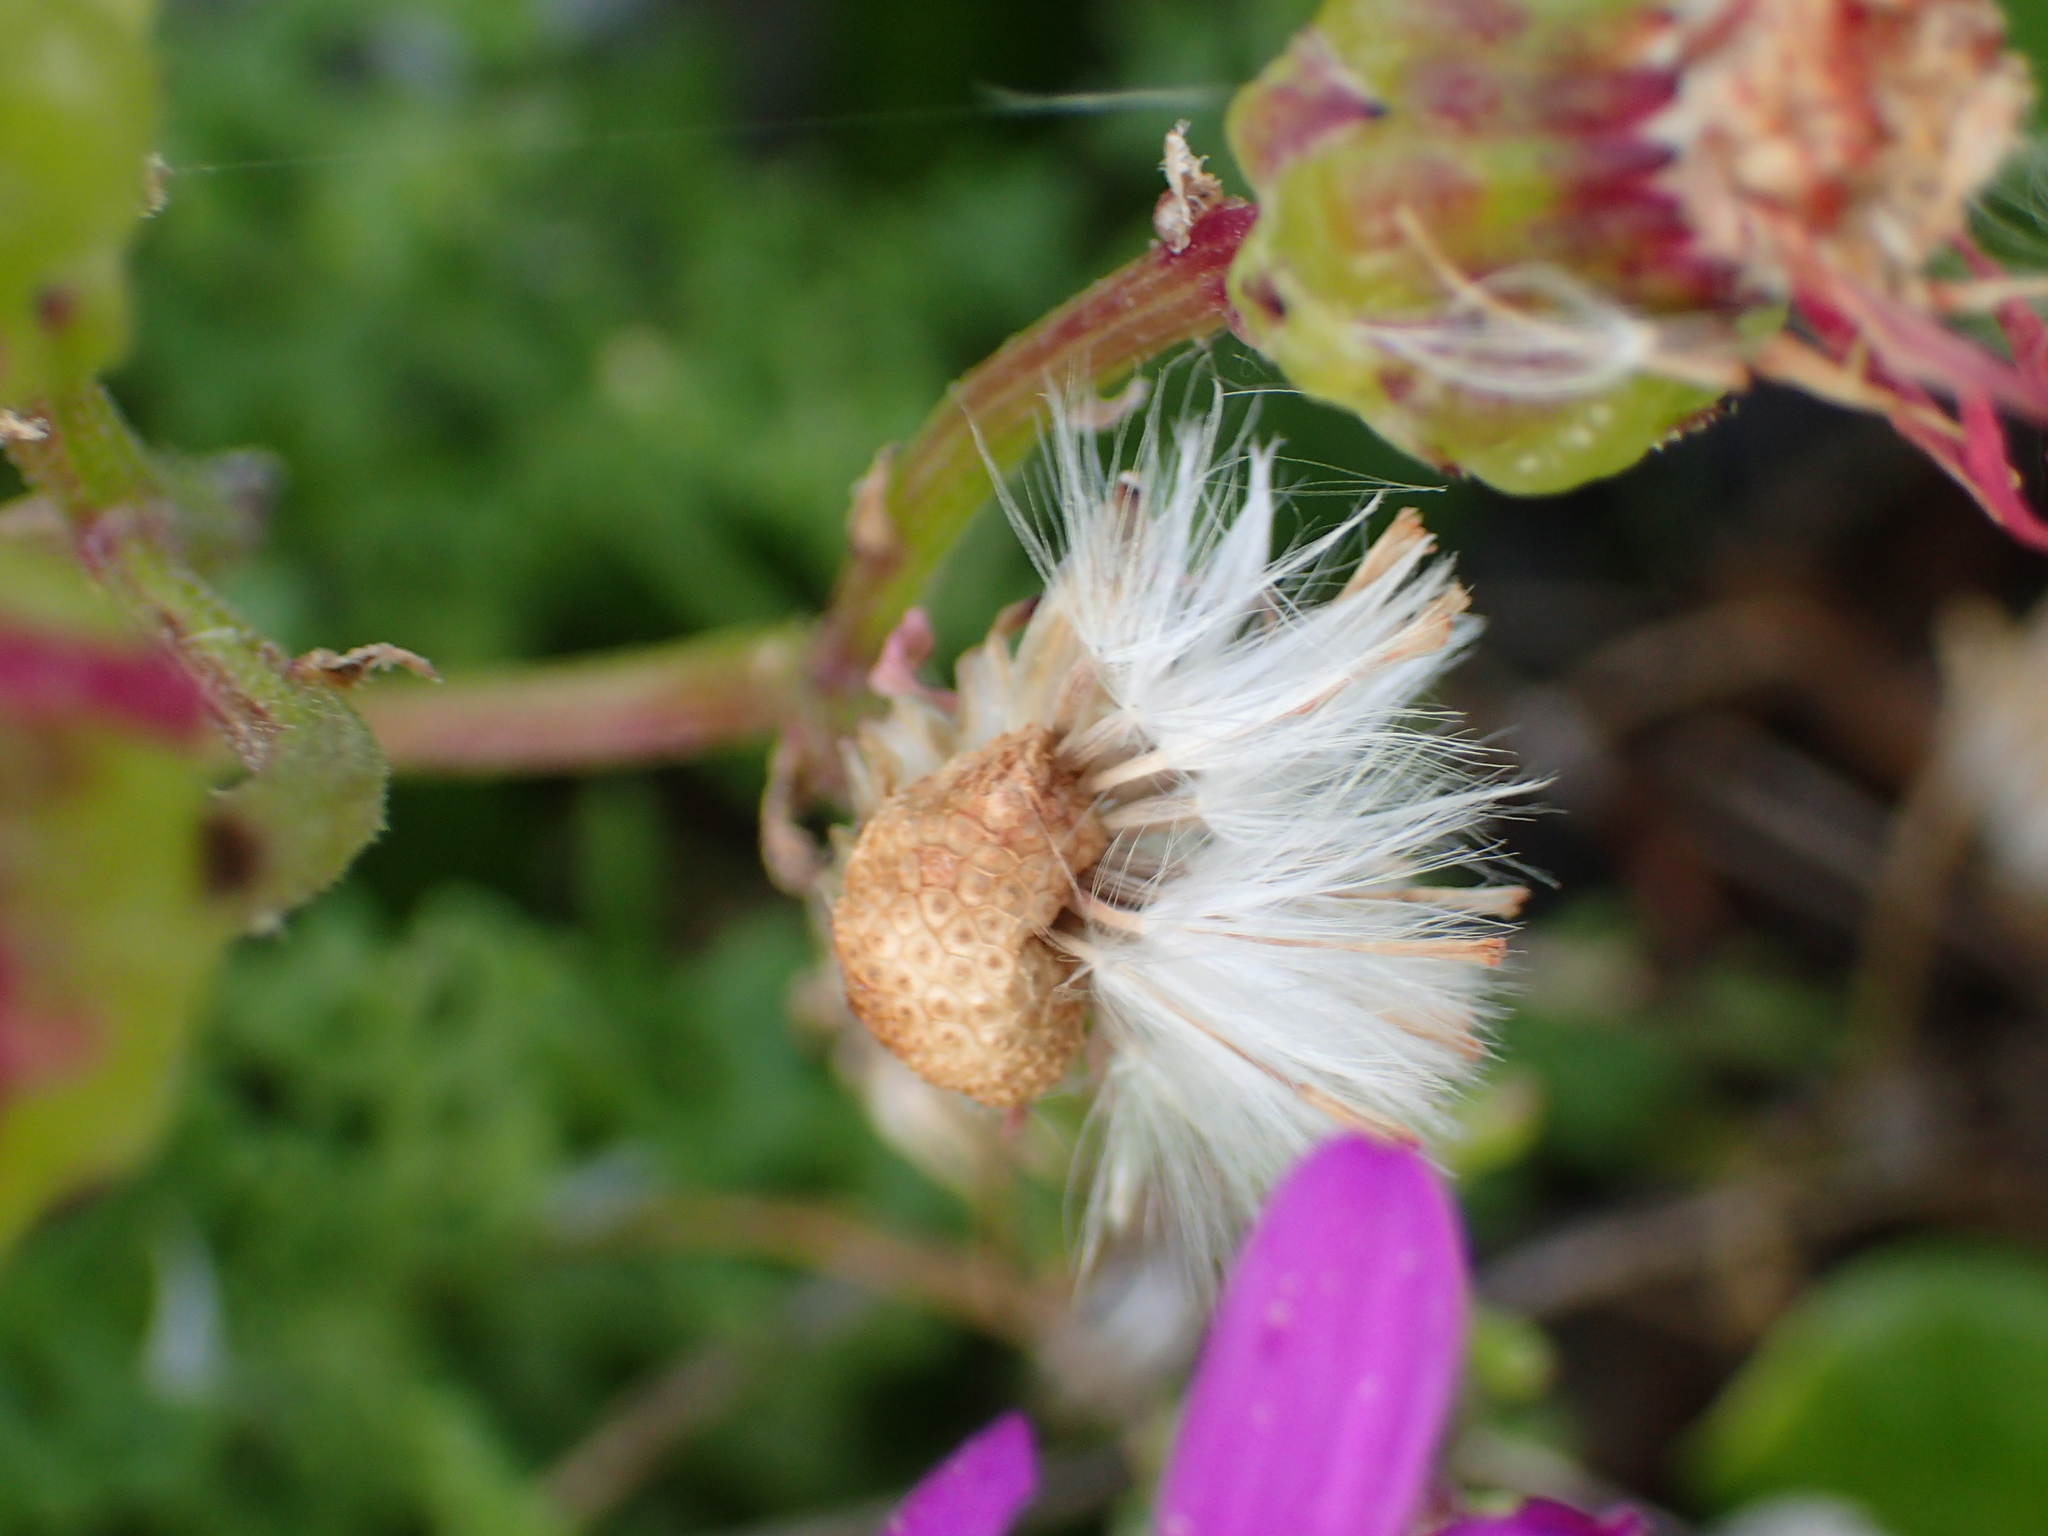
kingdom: Plantae
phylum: Tracheophyta
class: Magnoliopsida
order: Asterales
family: Asteraceae
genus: Senecio
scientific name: Senecio elegans
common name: Purple groundsel
